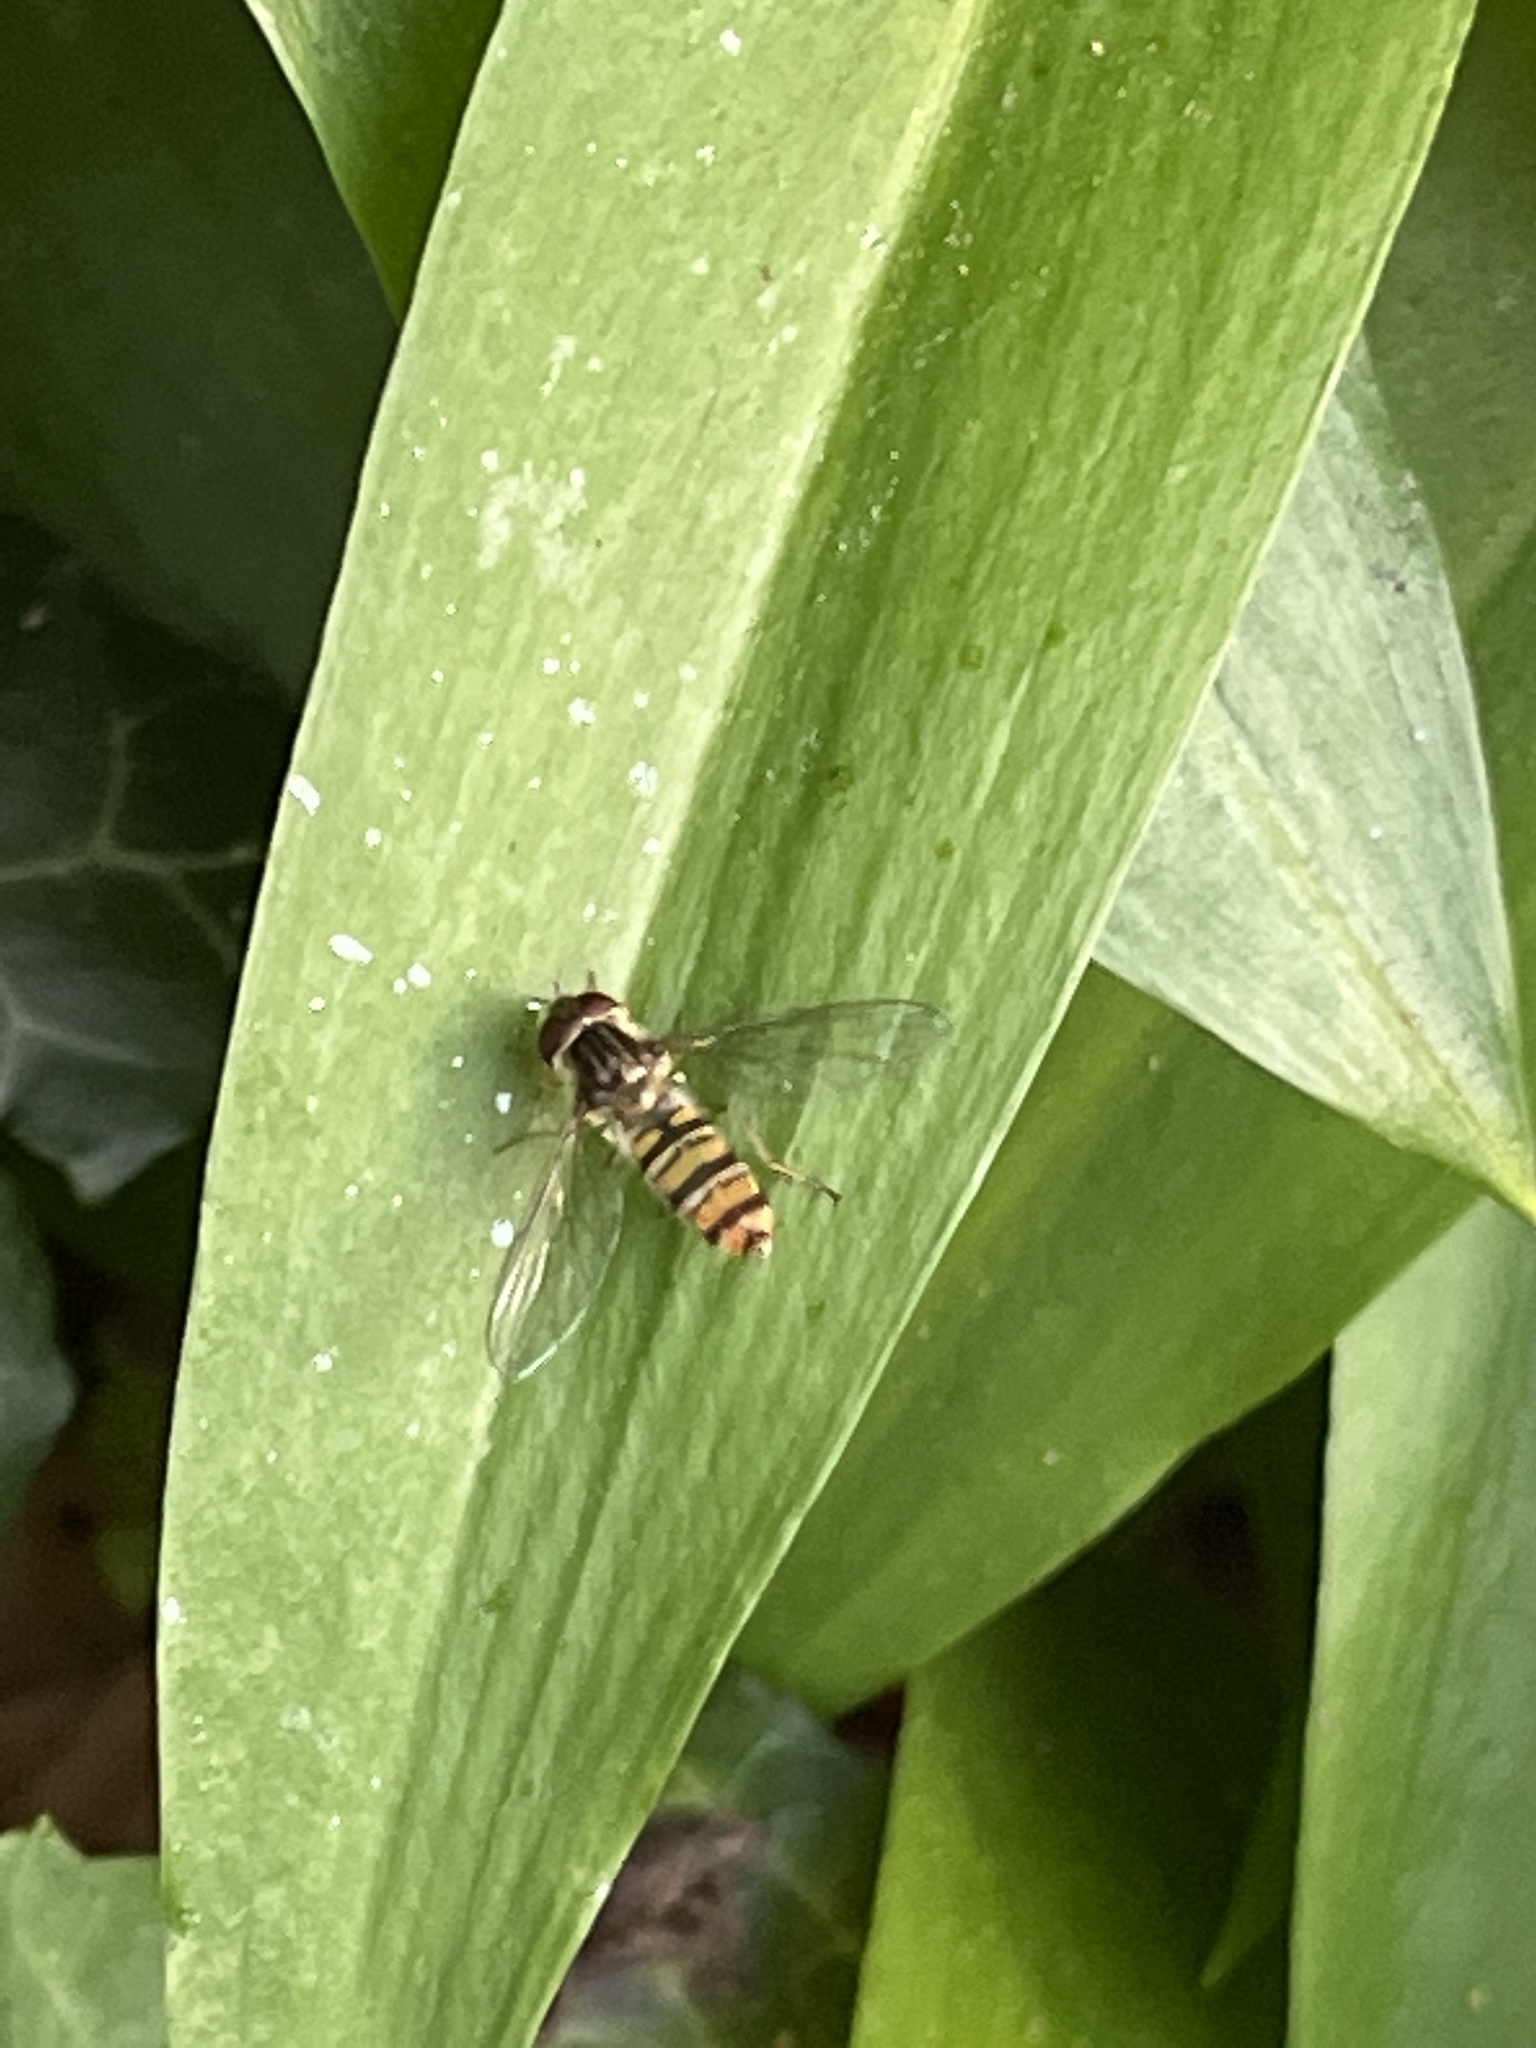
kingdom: Animalia
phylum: Arthropoda
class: Insecta
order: Diptera
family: Syrphidae
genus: Episyrphus
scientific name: Episyrphus balteatus
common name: Marmalade hoverfly
